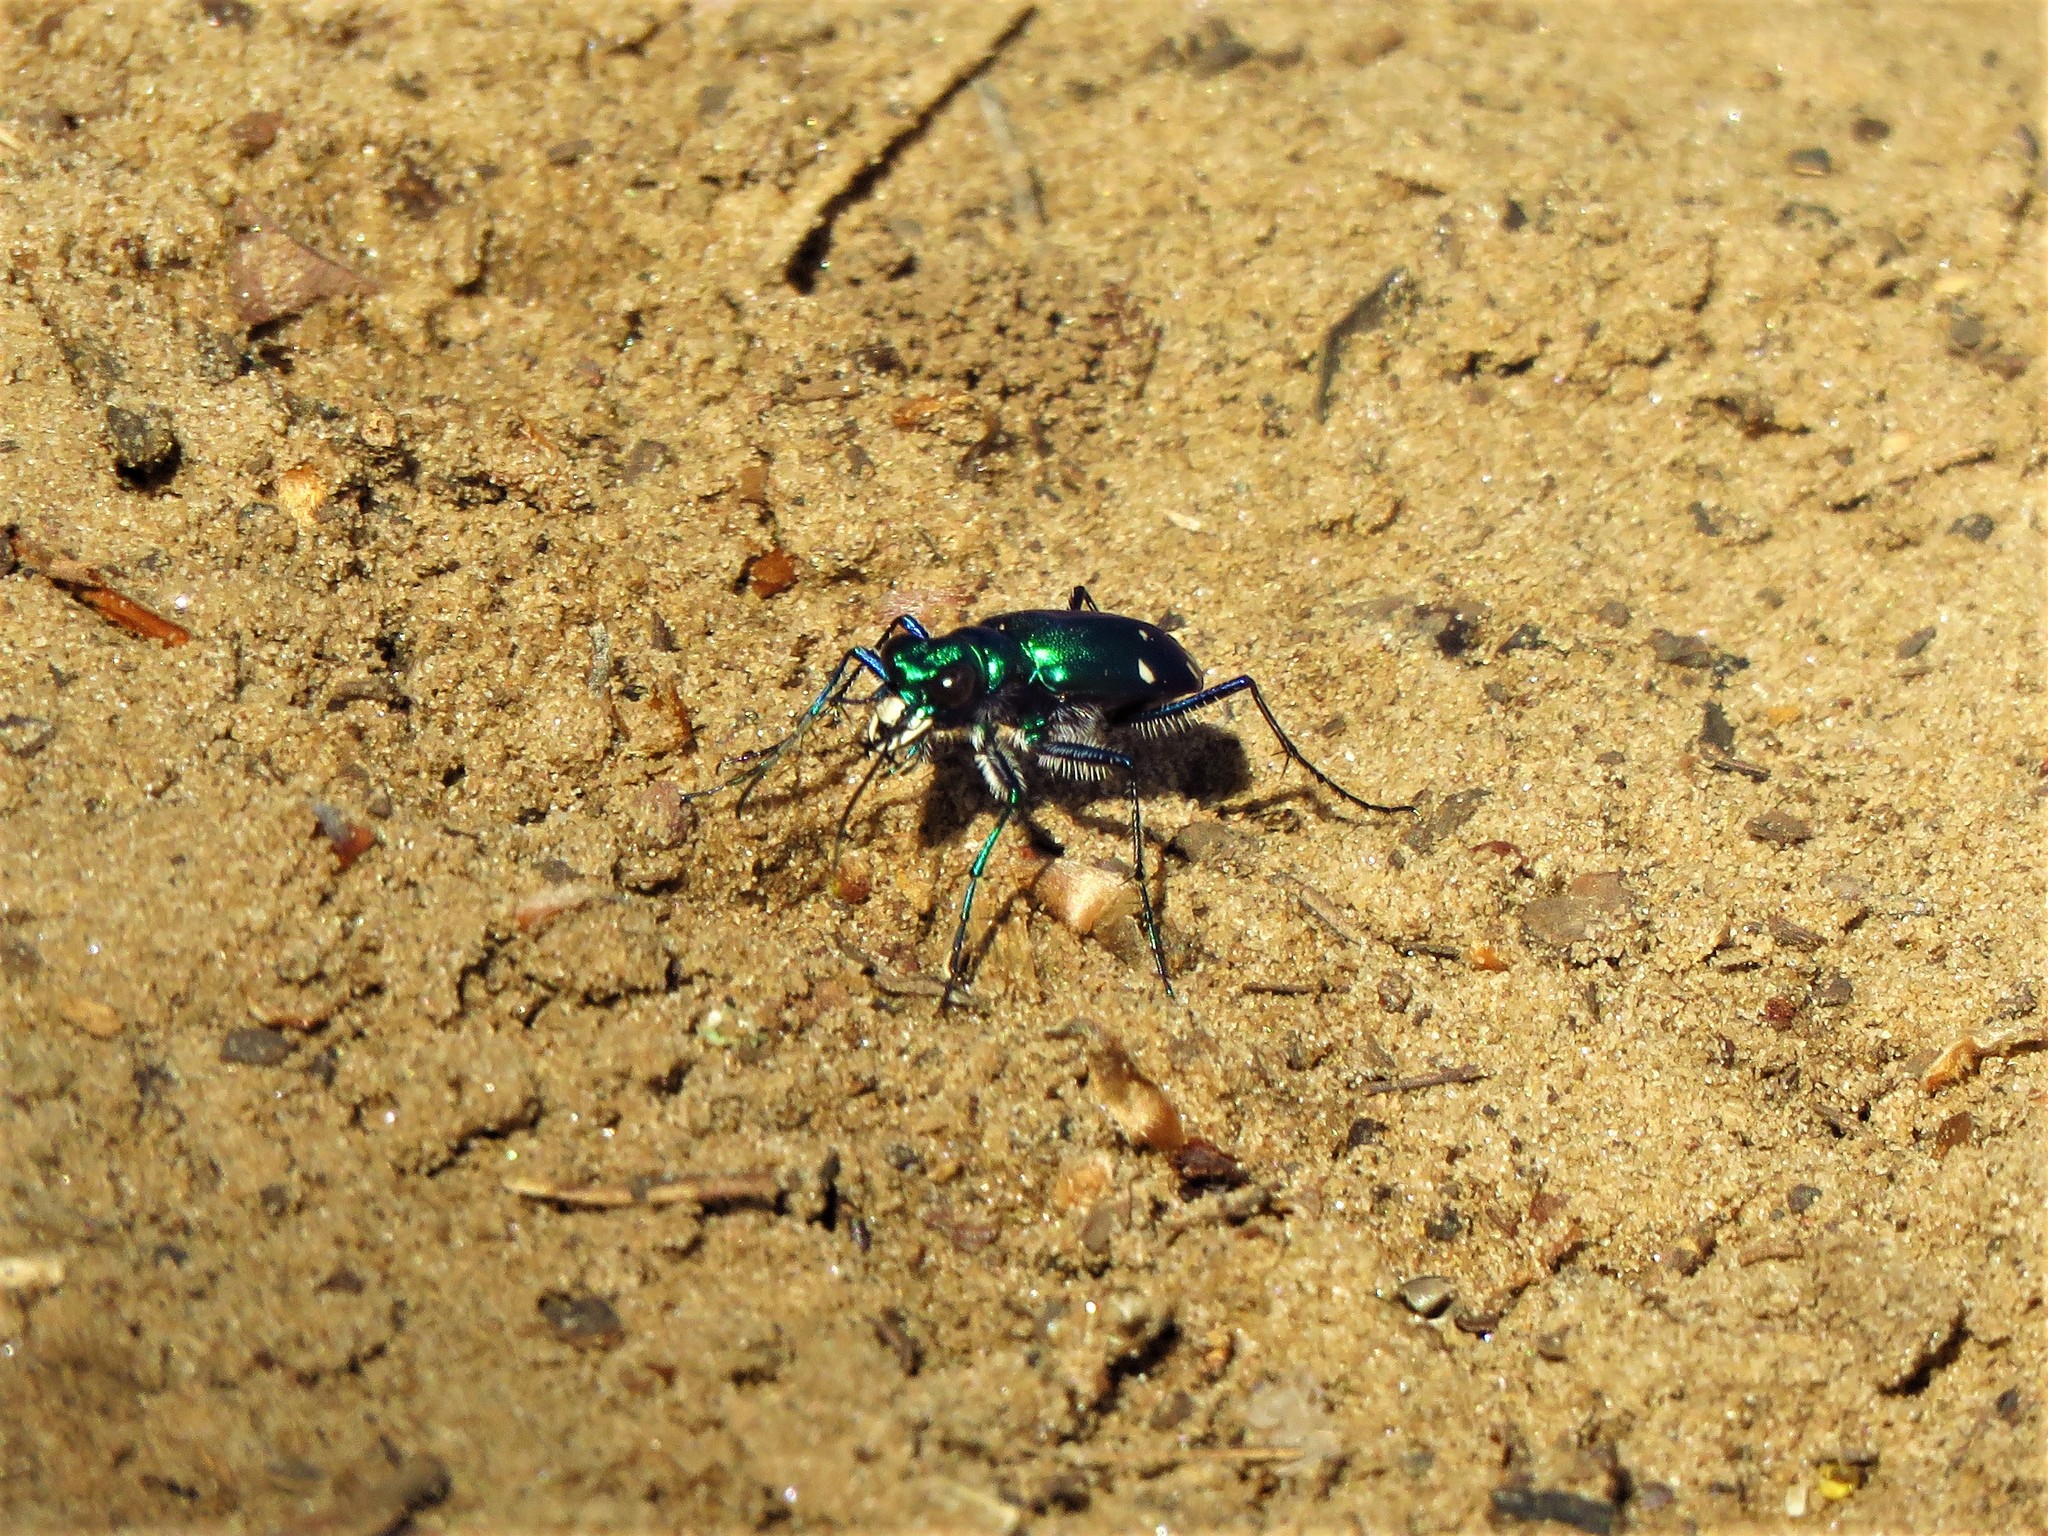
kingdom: Animalia
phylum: Arthropoda
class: Insecta
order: Coleoptera
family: Carabidae
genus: Cicindela
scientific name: Cicindela sexguttata
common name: Six-spotted tiger beetle
